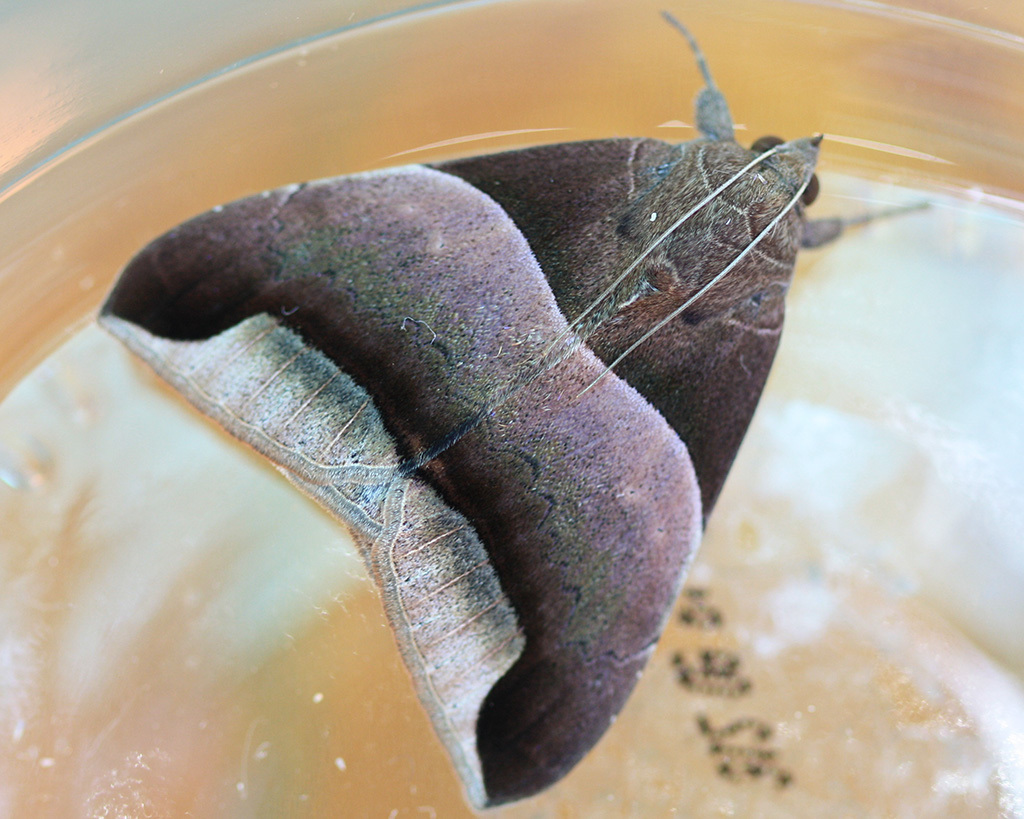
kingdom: Animalia
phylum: Arthropoda
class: Insecta
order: Lepidoptera
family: Erebidae
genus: Achaea
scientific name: Achaea echo
